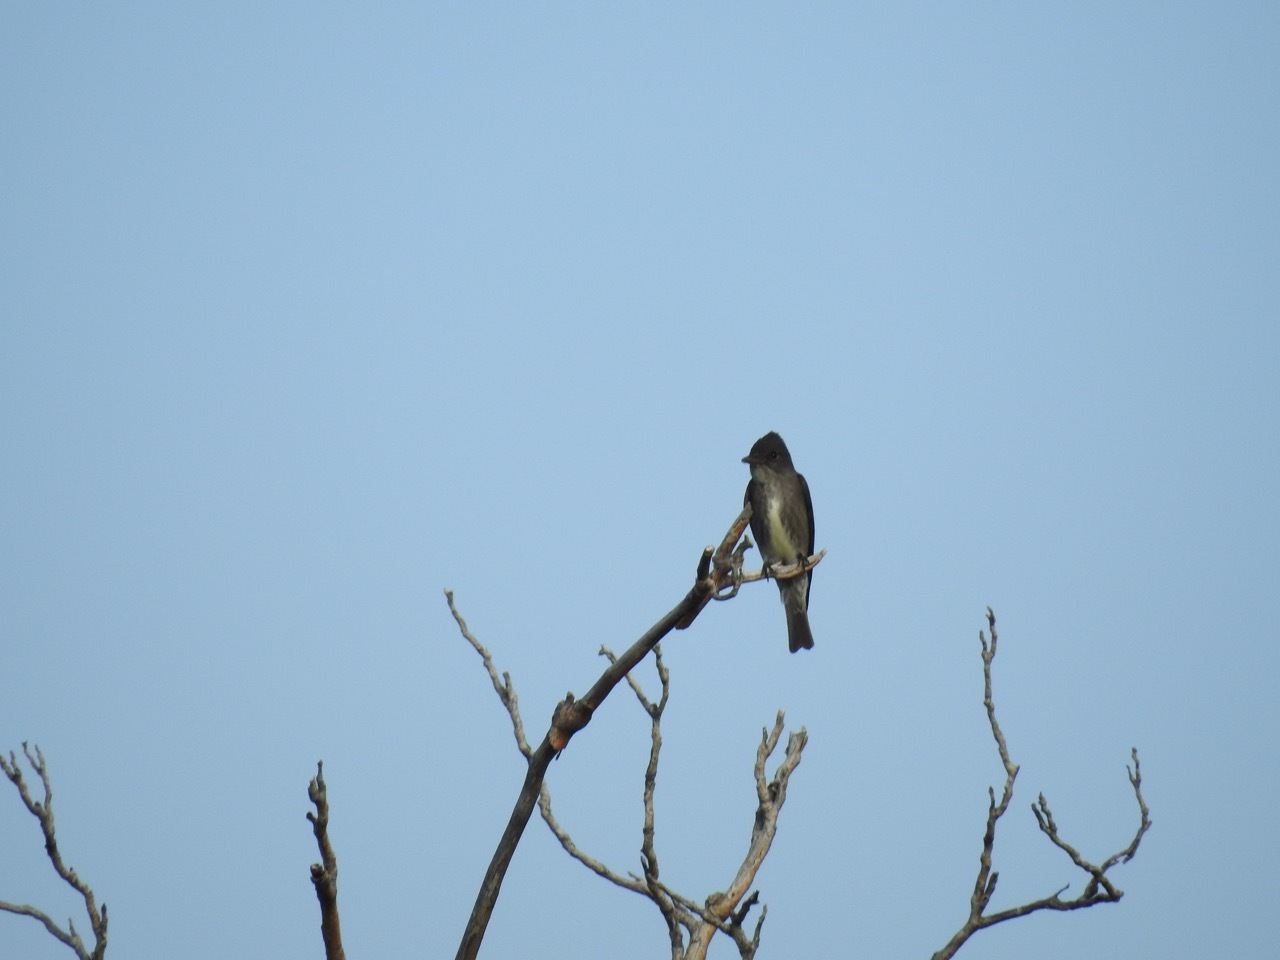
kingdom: Animalia
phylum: Chordata
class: Aves
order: Passeriformes
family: Tyrannidae
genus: Contopus
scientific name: Contopus cooperi
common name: Olive-sided flycatcher
